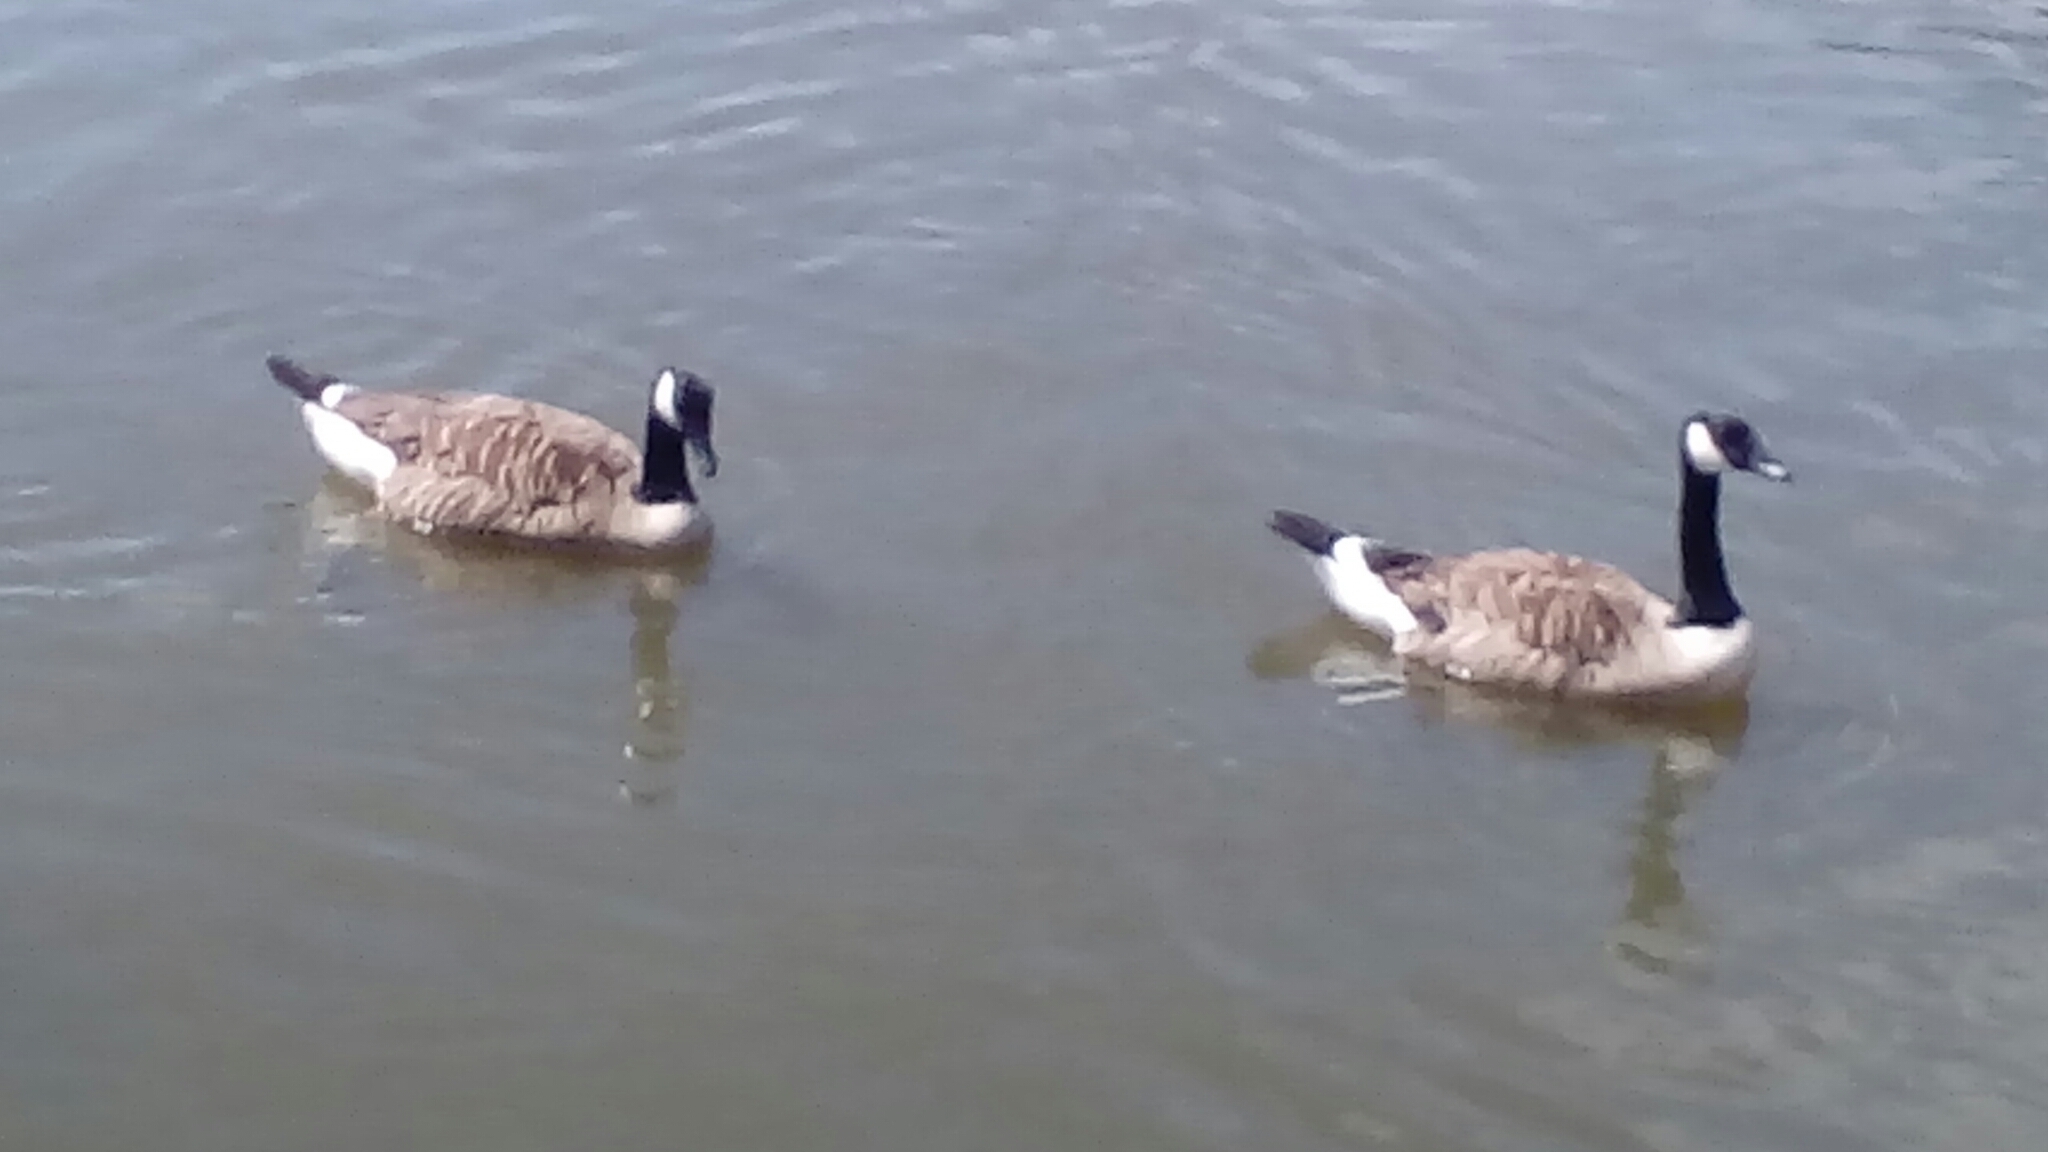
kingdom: Animalia
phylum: Chordata
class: Aves
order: Anseriformes
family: Anatidae
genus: Branta
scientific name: Branta canadensis
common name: Canada goose
